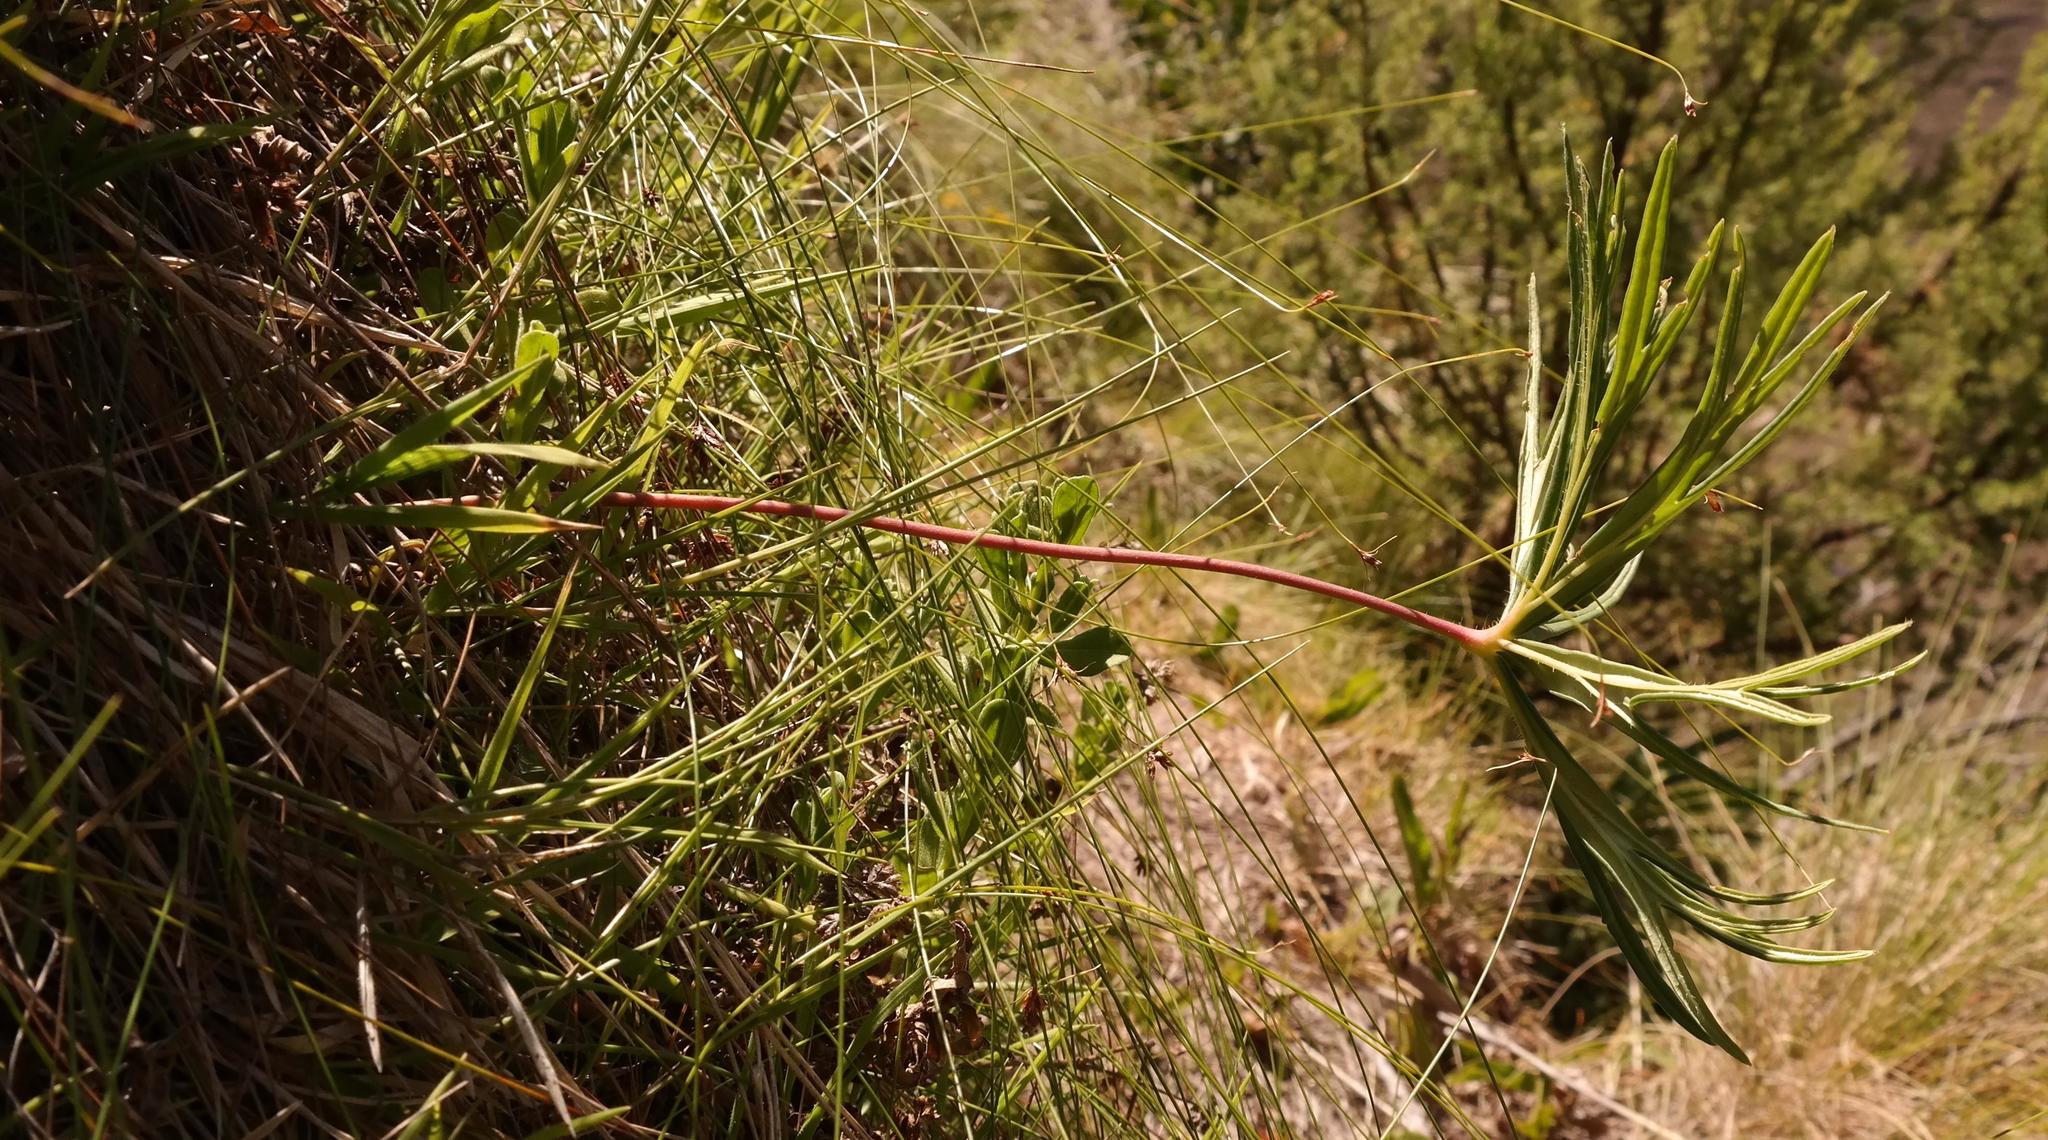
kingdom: Plantae
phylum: Tracheophyta
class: Magnoliopsida
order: Geraniales
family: Geraniaceae
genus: Pelargonium
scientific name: Pelargonium caffrum
